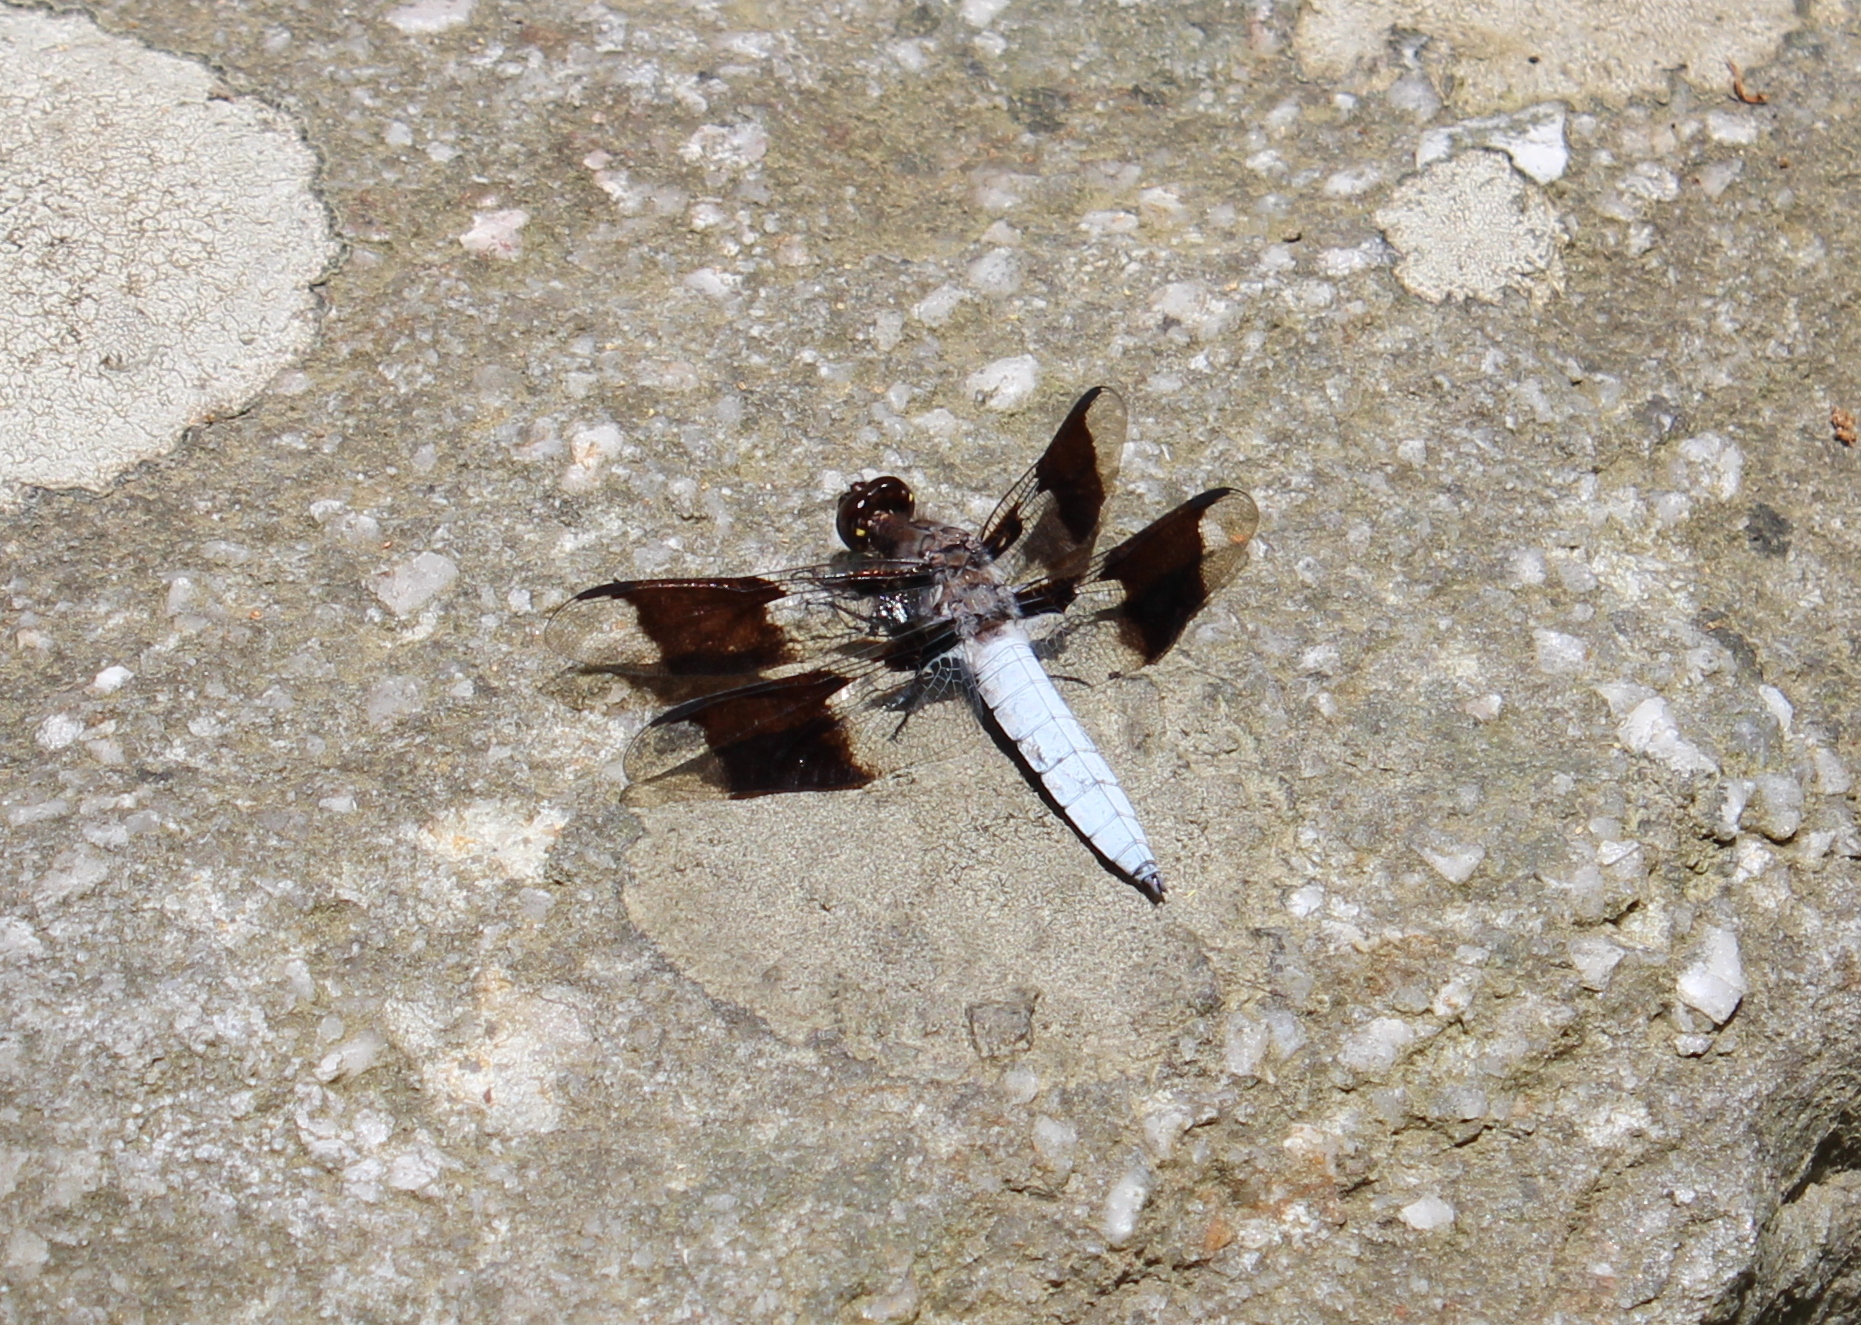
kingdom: Animalia
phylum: Arthropoda
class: Insecta
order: Odonata
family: Libellulidae
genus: Plathemis
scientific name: Plathemis lydia
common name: Common whitetail
